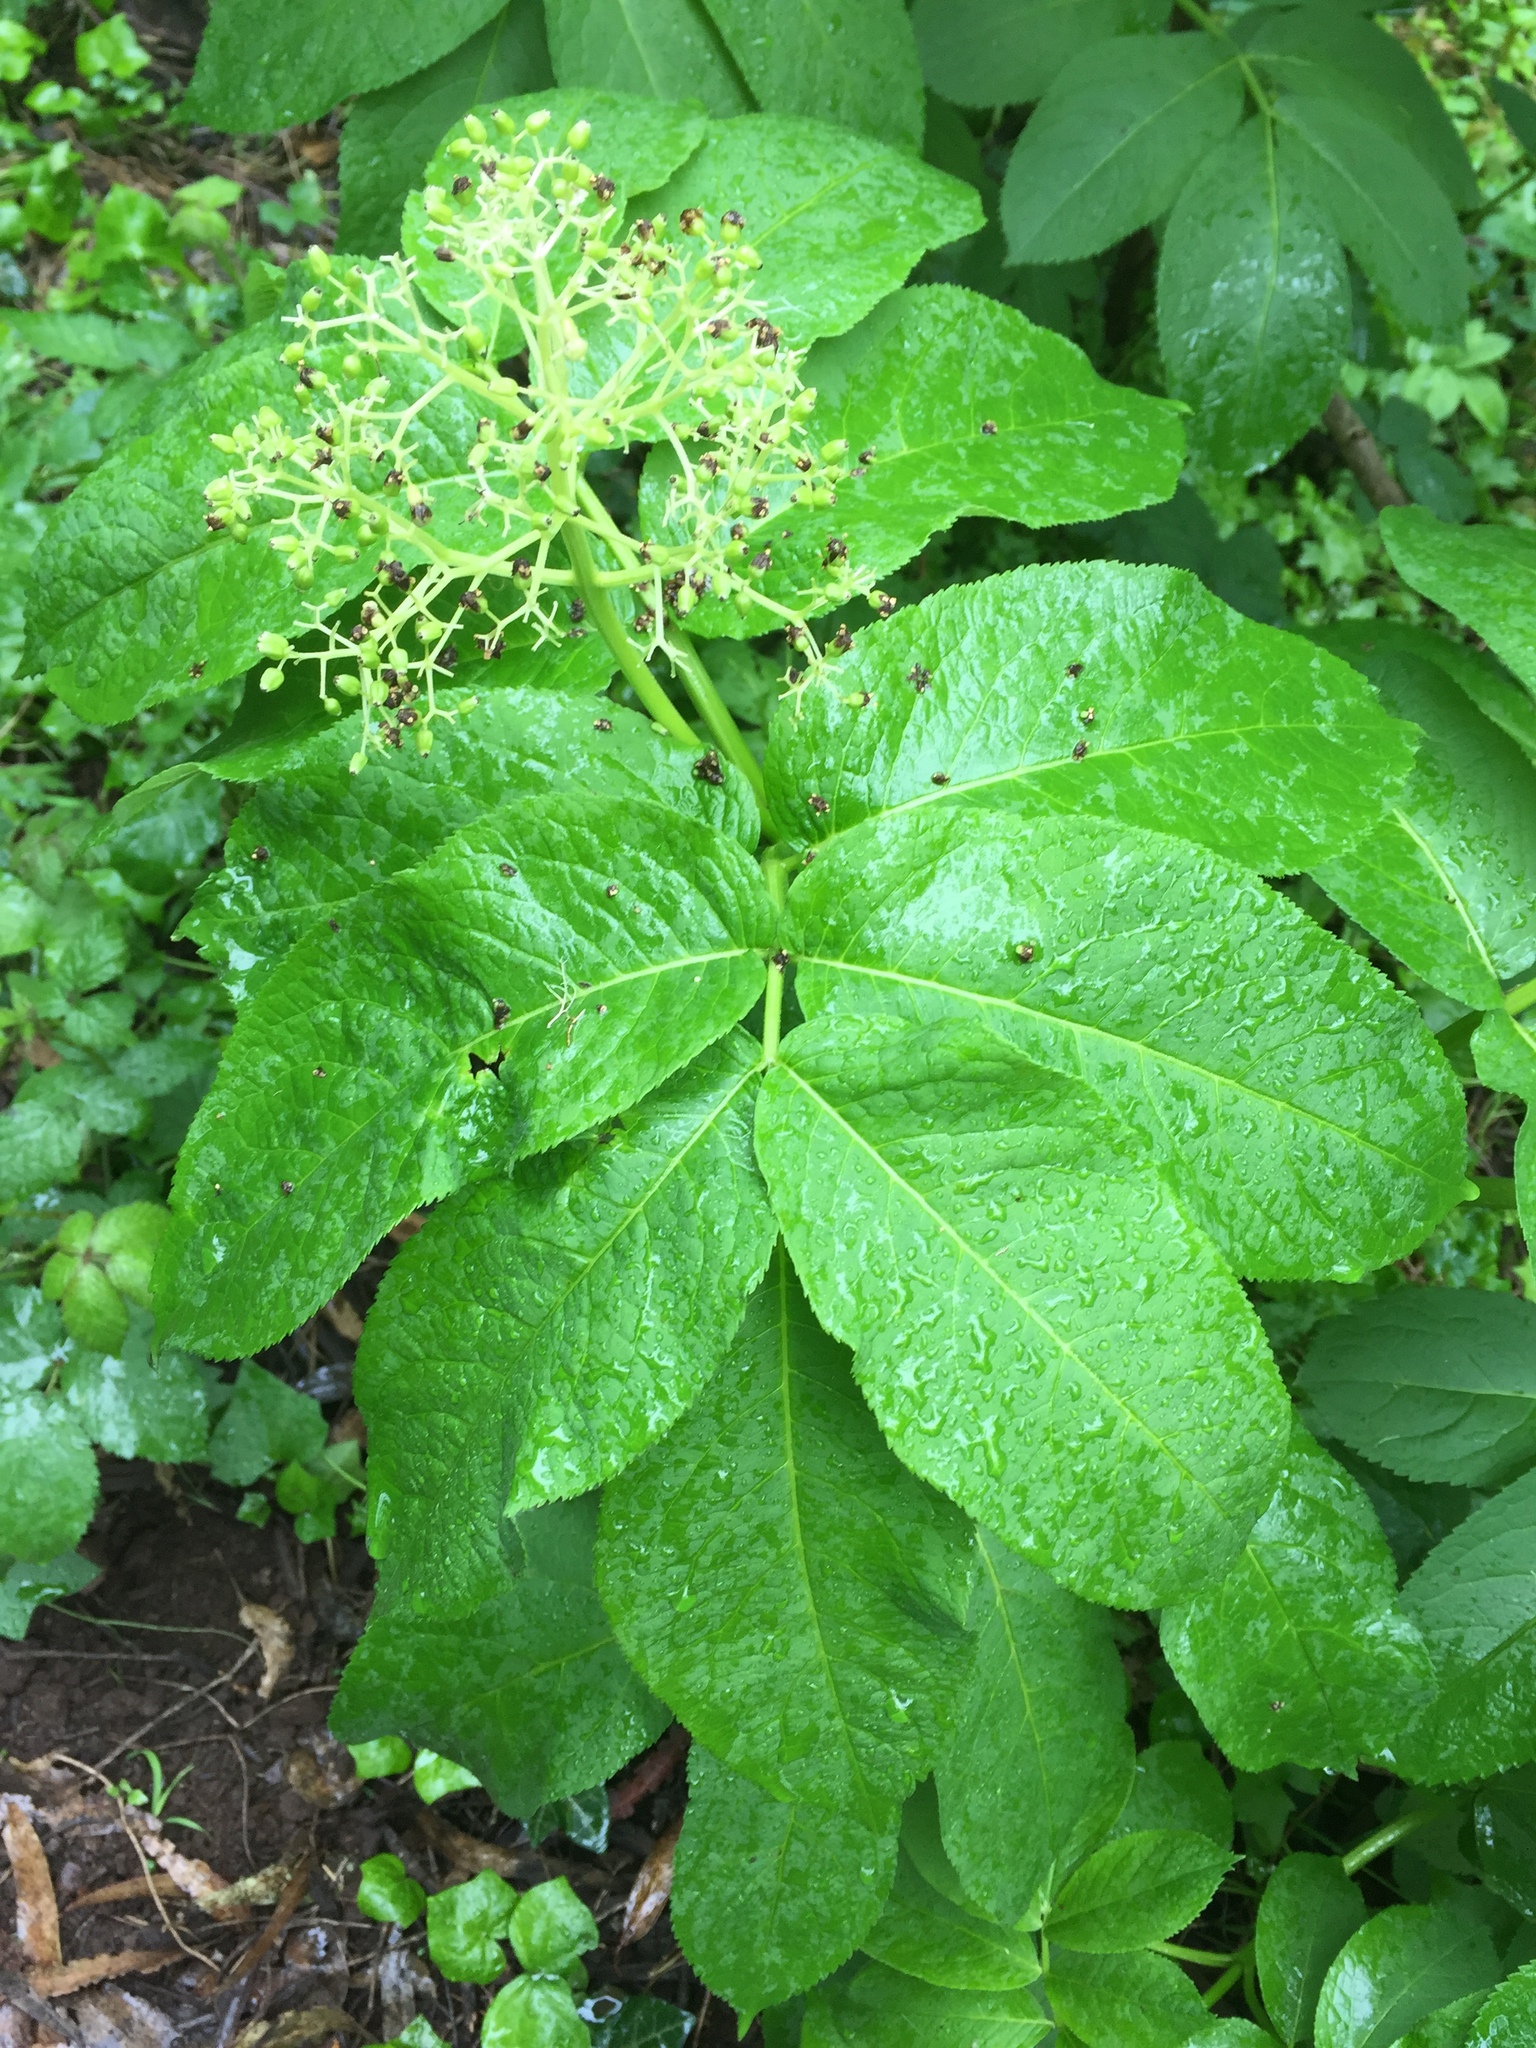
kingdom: Plantae
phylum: Tracheophyta
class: Magnoliopsida
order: Dipsacales
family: Viburnaceae
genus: Sambucus
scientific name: Sambucus racemosa
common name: Red-berried elder
